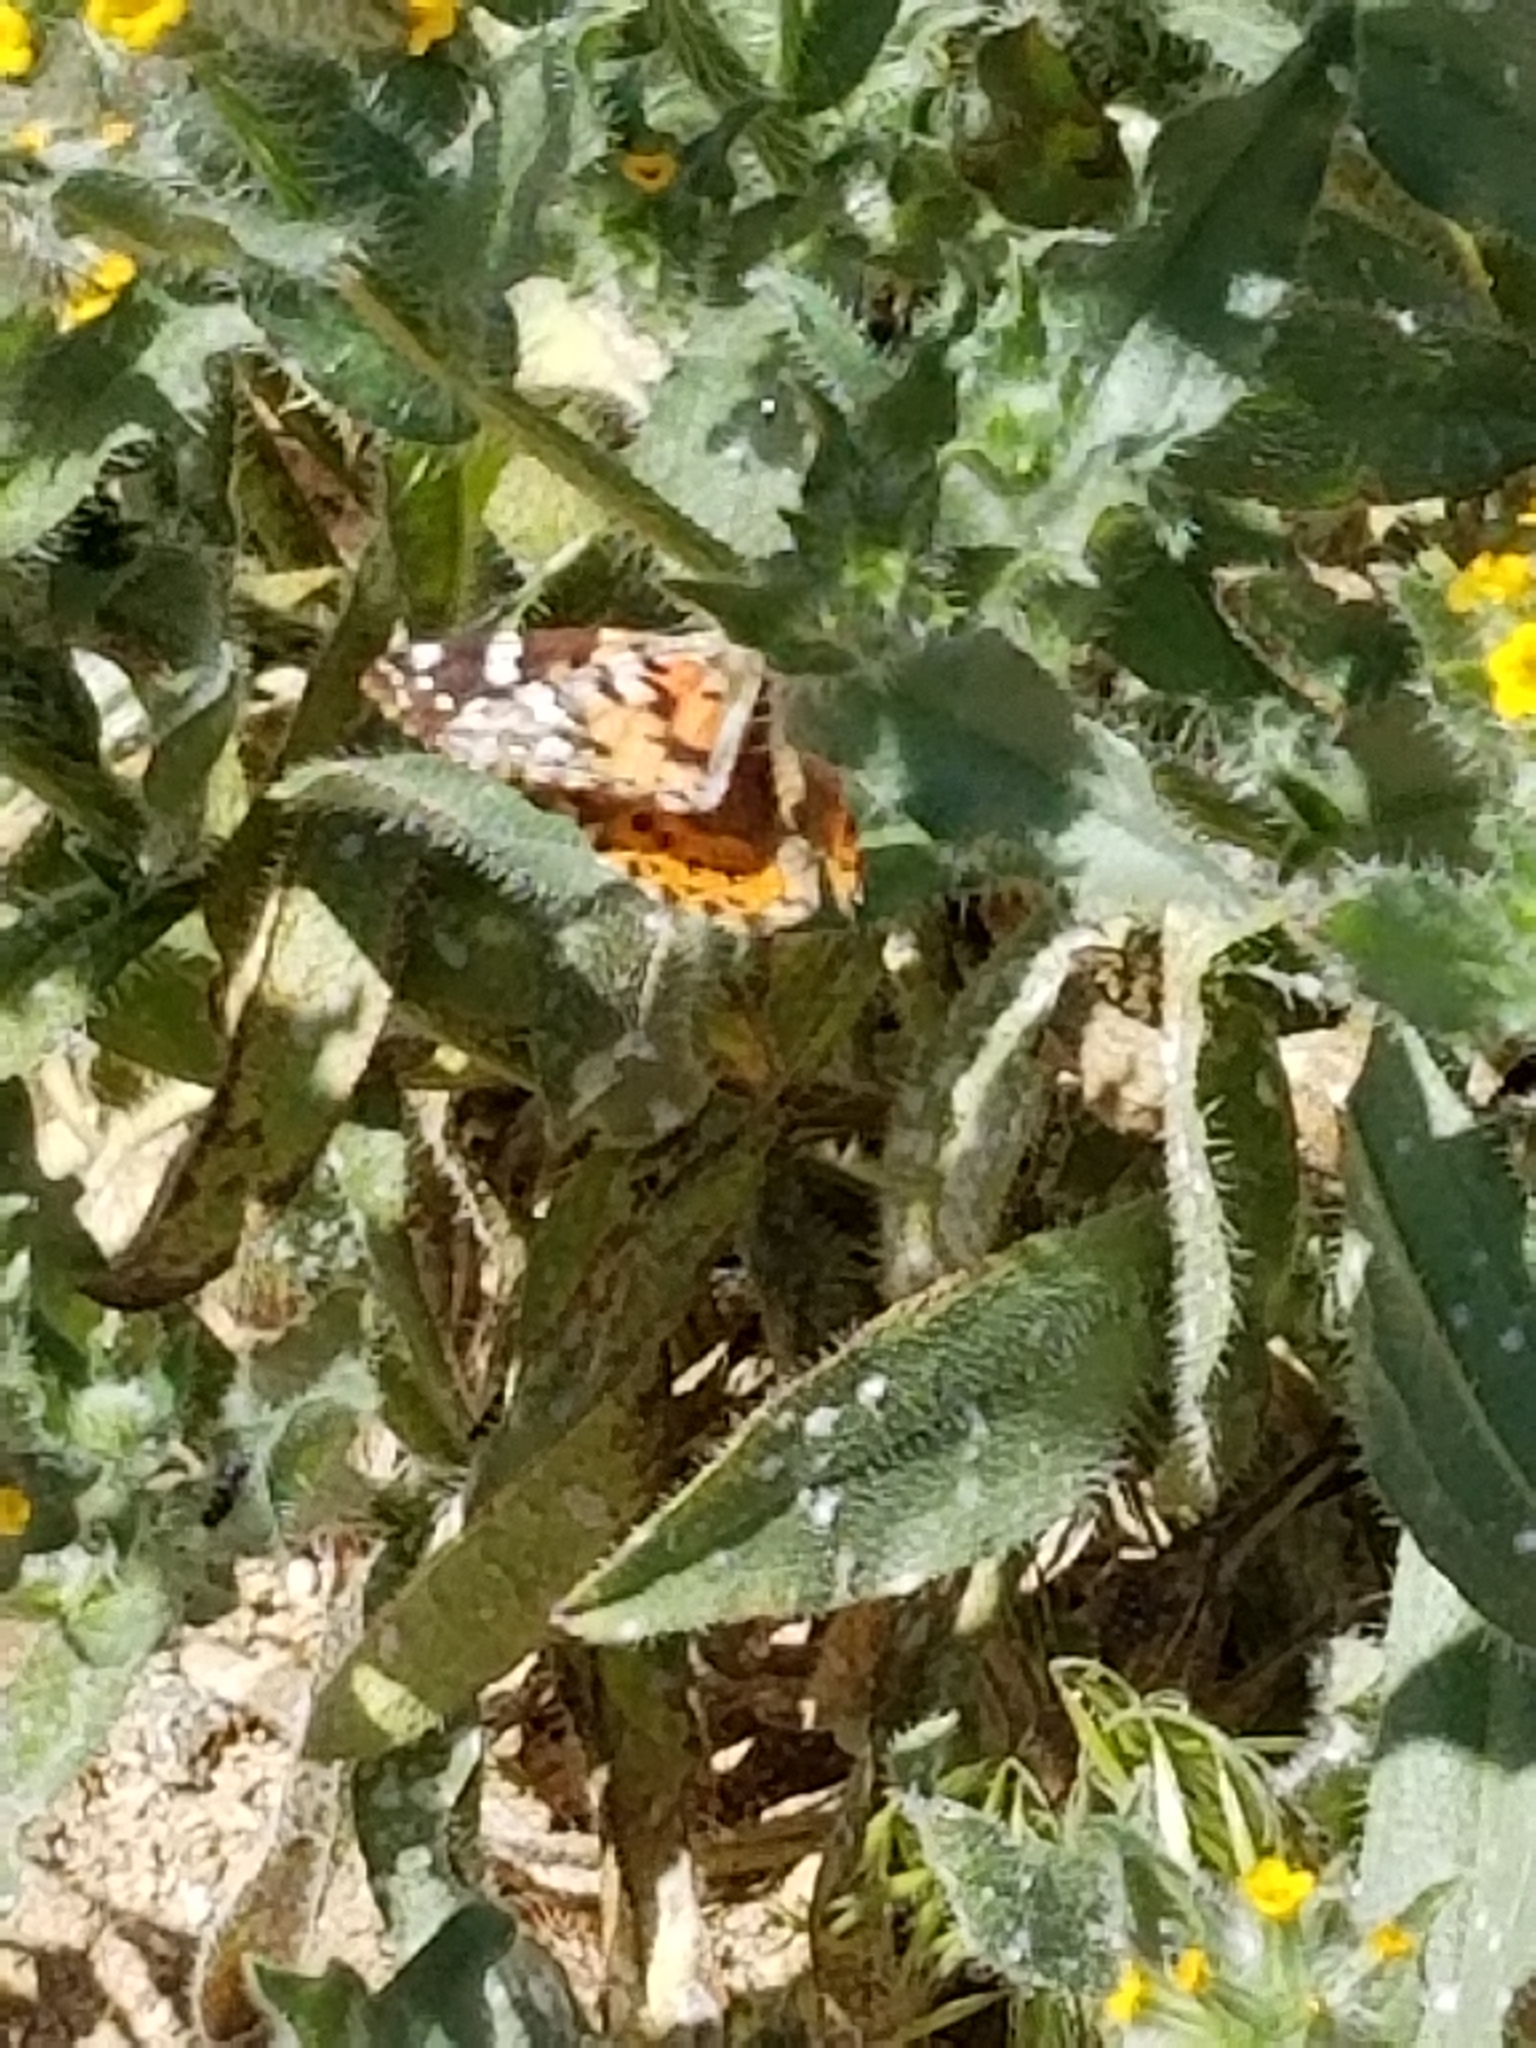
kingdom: Animalia
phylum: Arthropoda
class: Insecta
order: Lepidoptera
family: Nymphalidae
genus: Vanessa
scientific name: Vanessa cardui
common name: Painted lady
